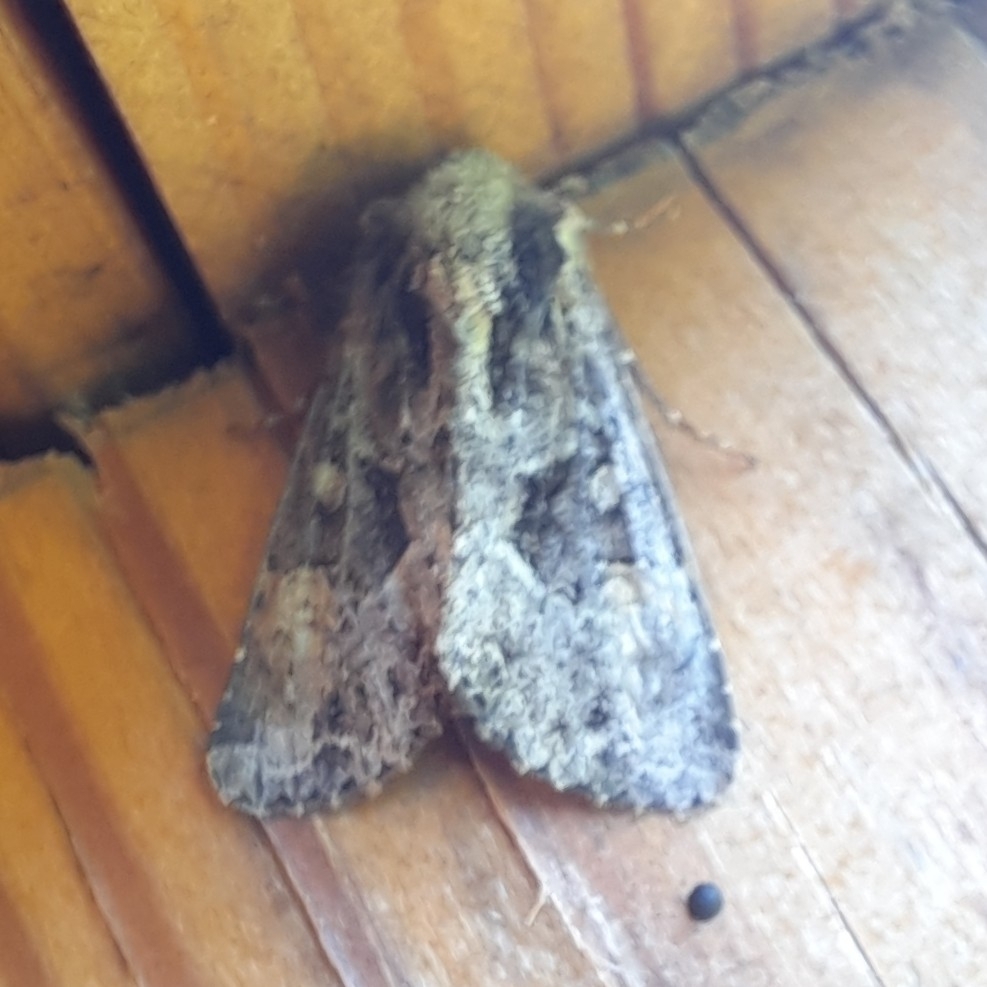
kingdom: Animalia
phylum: Arthropoda
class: Insecta
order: Lepidoptera
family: Noctuidae
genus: Apamea
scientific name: Apamea remissa
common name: Dusky brocade
